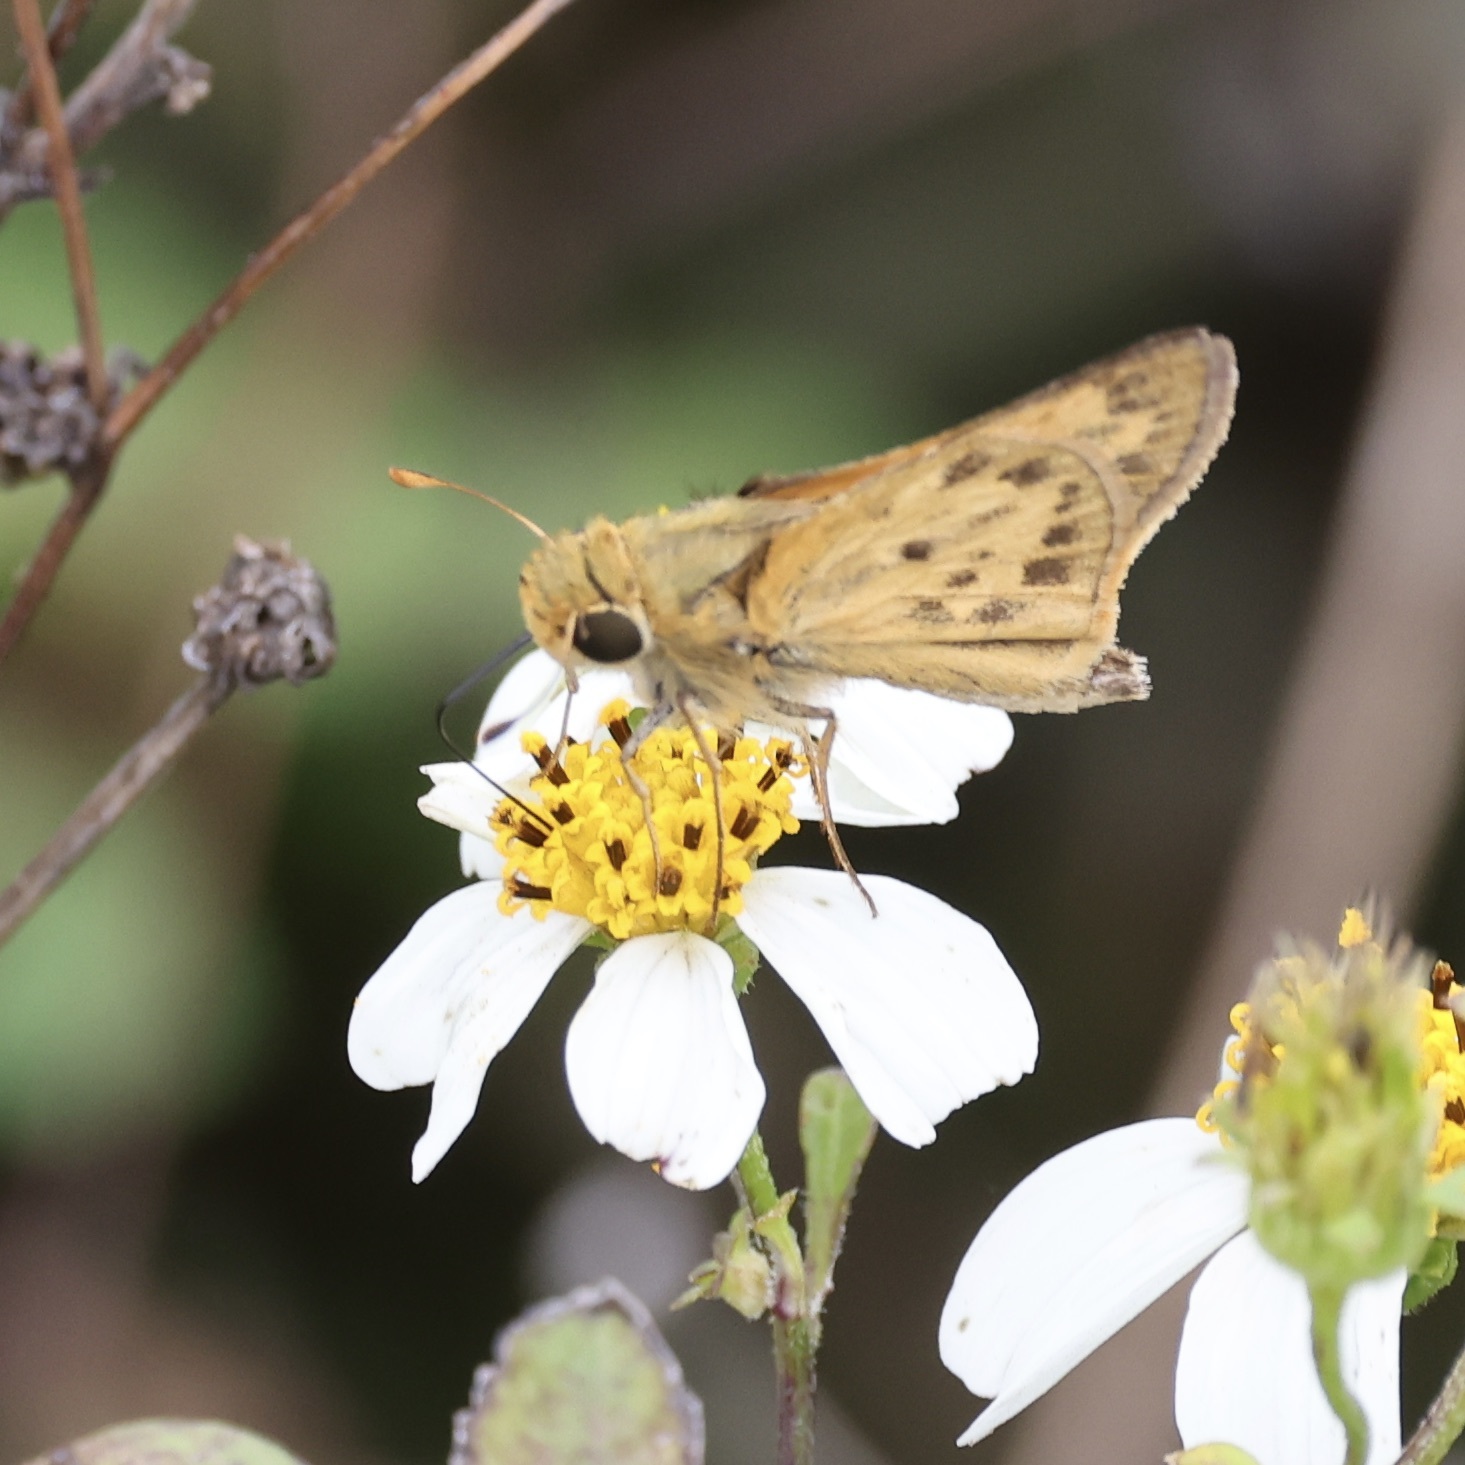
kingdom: Animalia
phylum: Arthropoda
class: Insecta
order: Lepidoptera
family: Hesperiidae
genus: Hylephila
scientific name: Hylephila phyleus
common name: Fiery skipper
